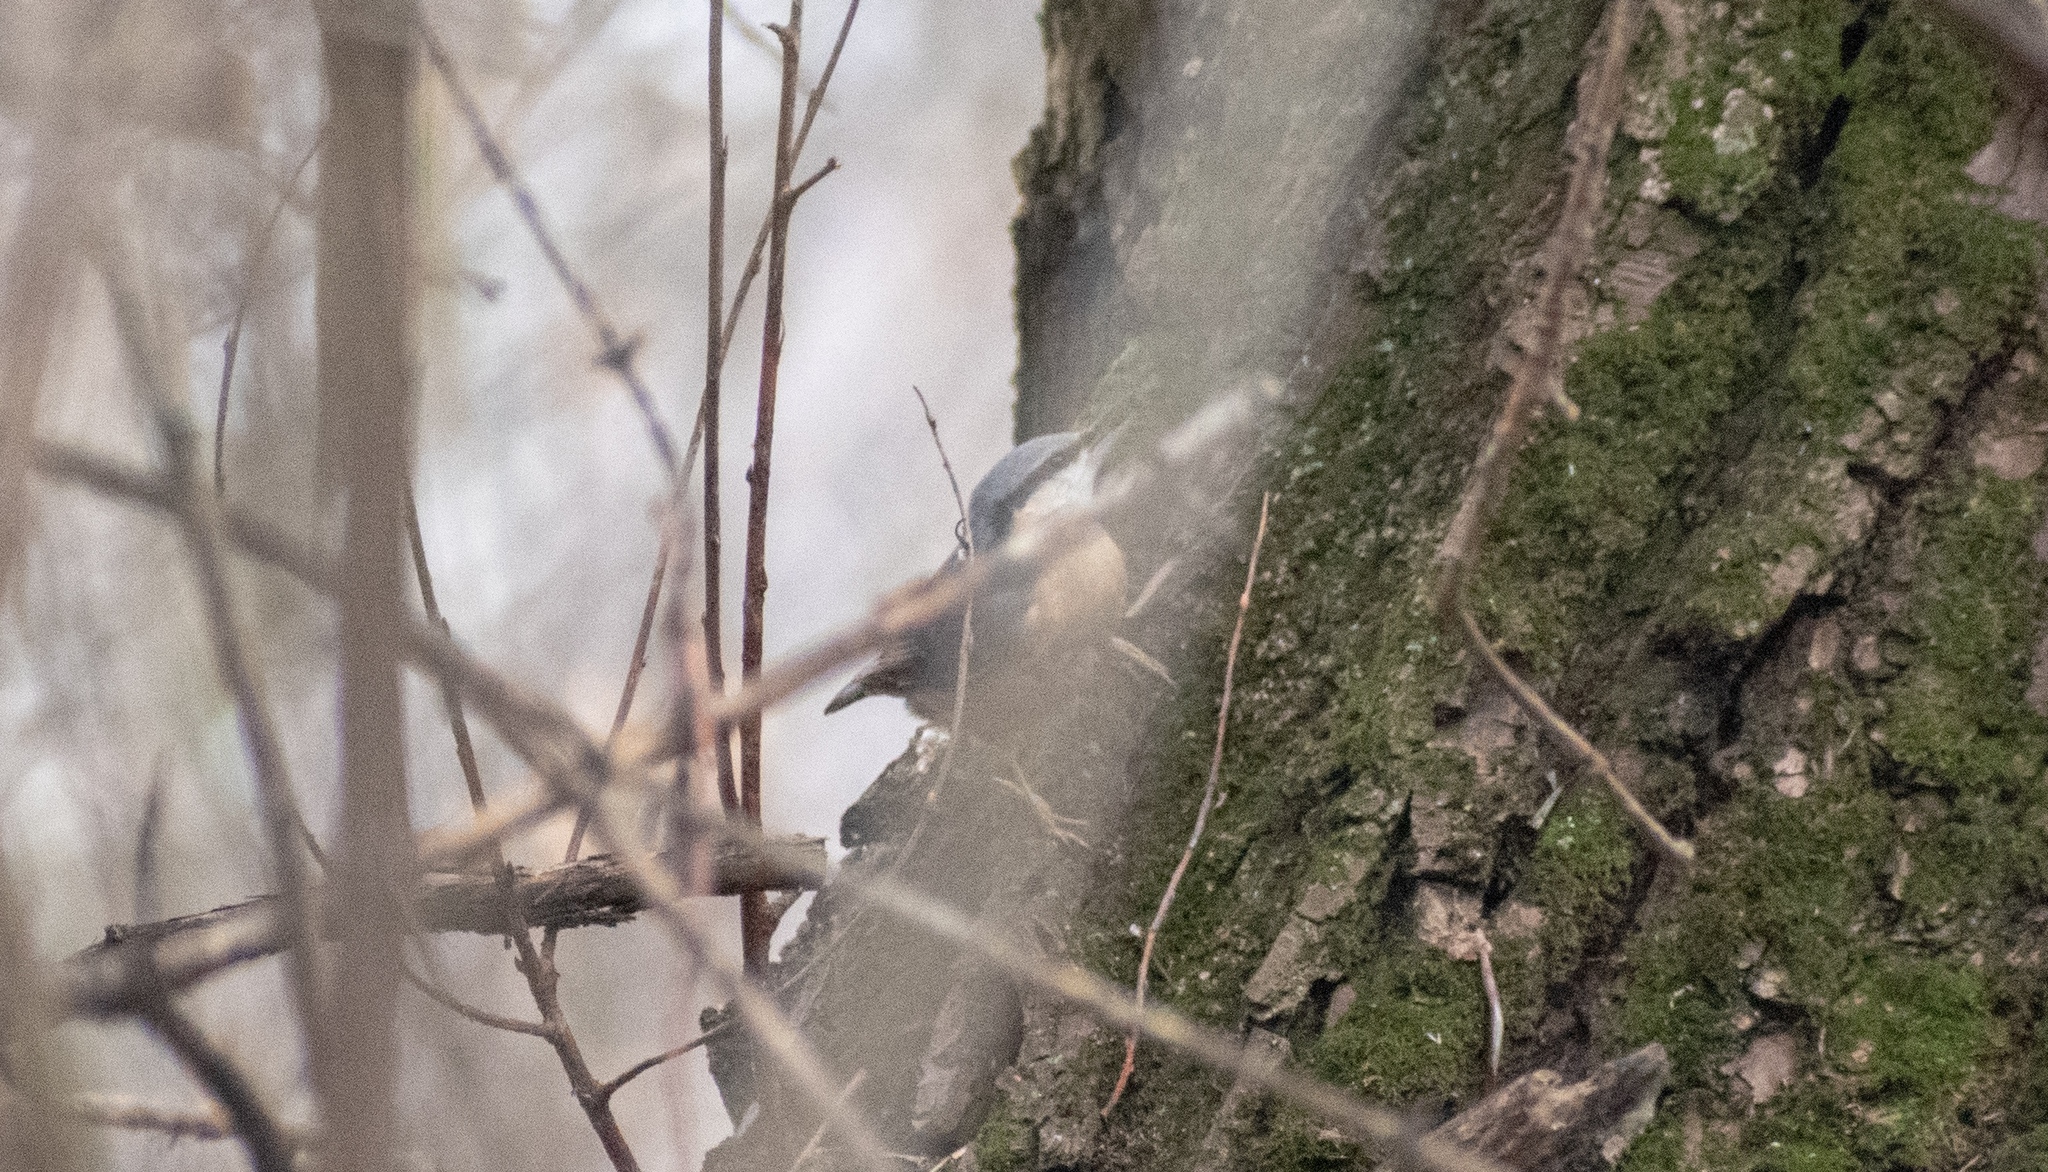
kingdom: Animalia
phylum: Chordata
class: Aves
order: Passeriformes
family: Sittidae
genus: Sitta
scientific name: Sitta europaea
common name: Eurasian nuthatch
